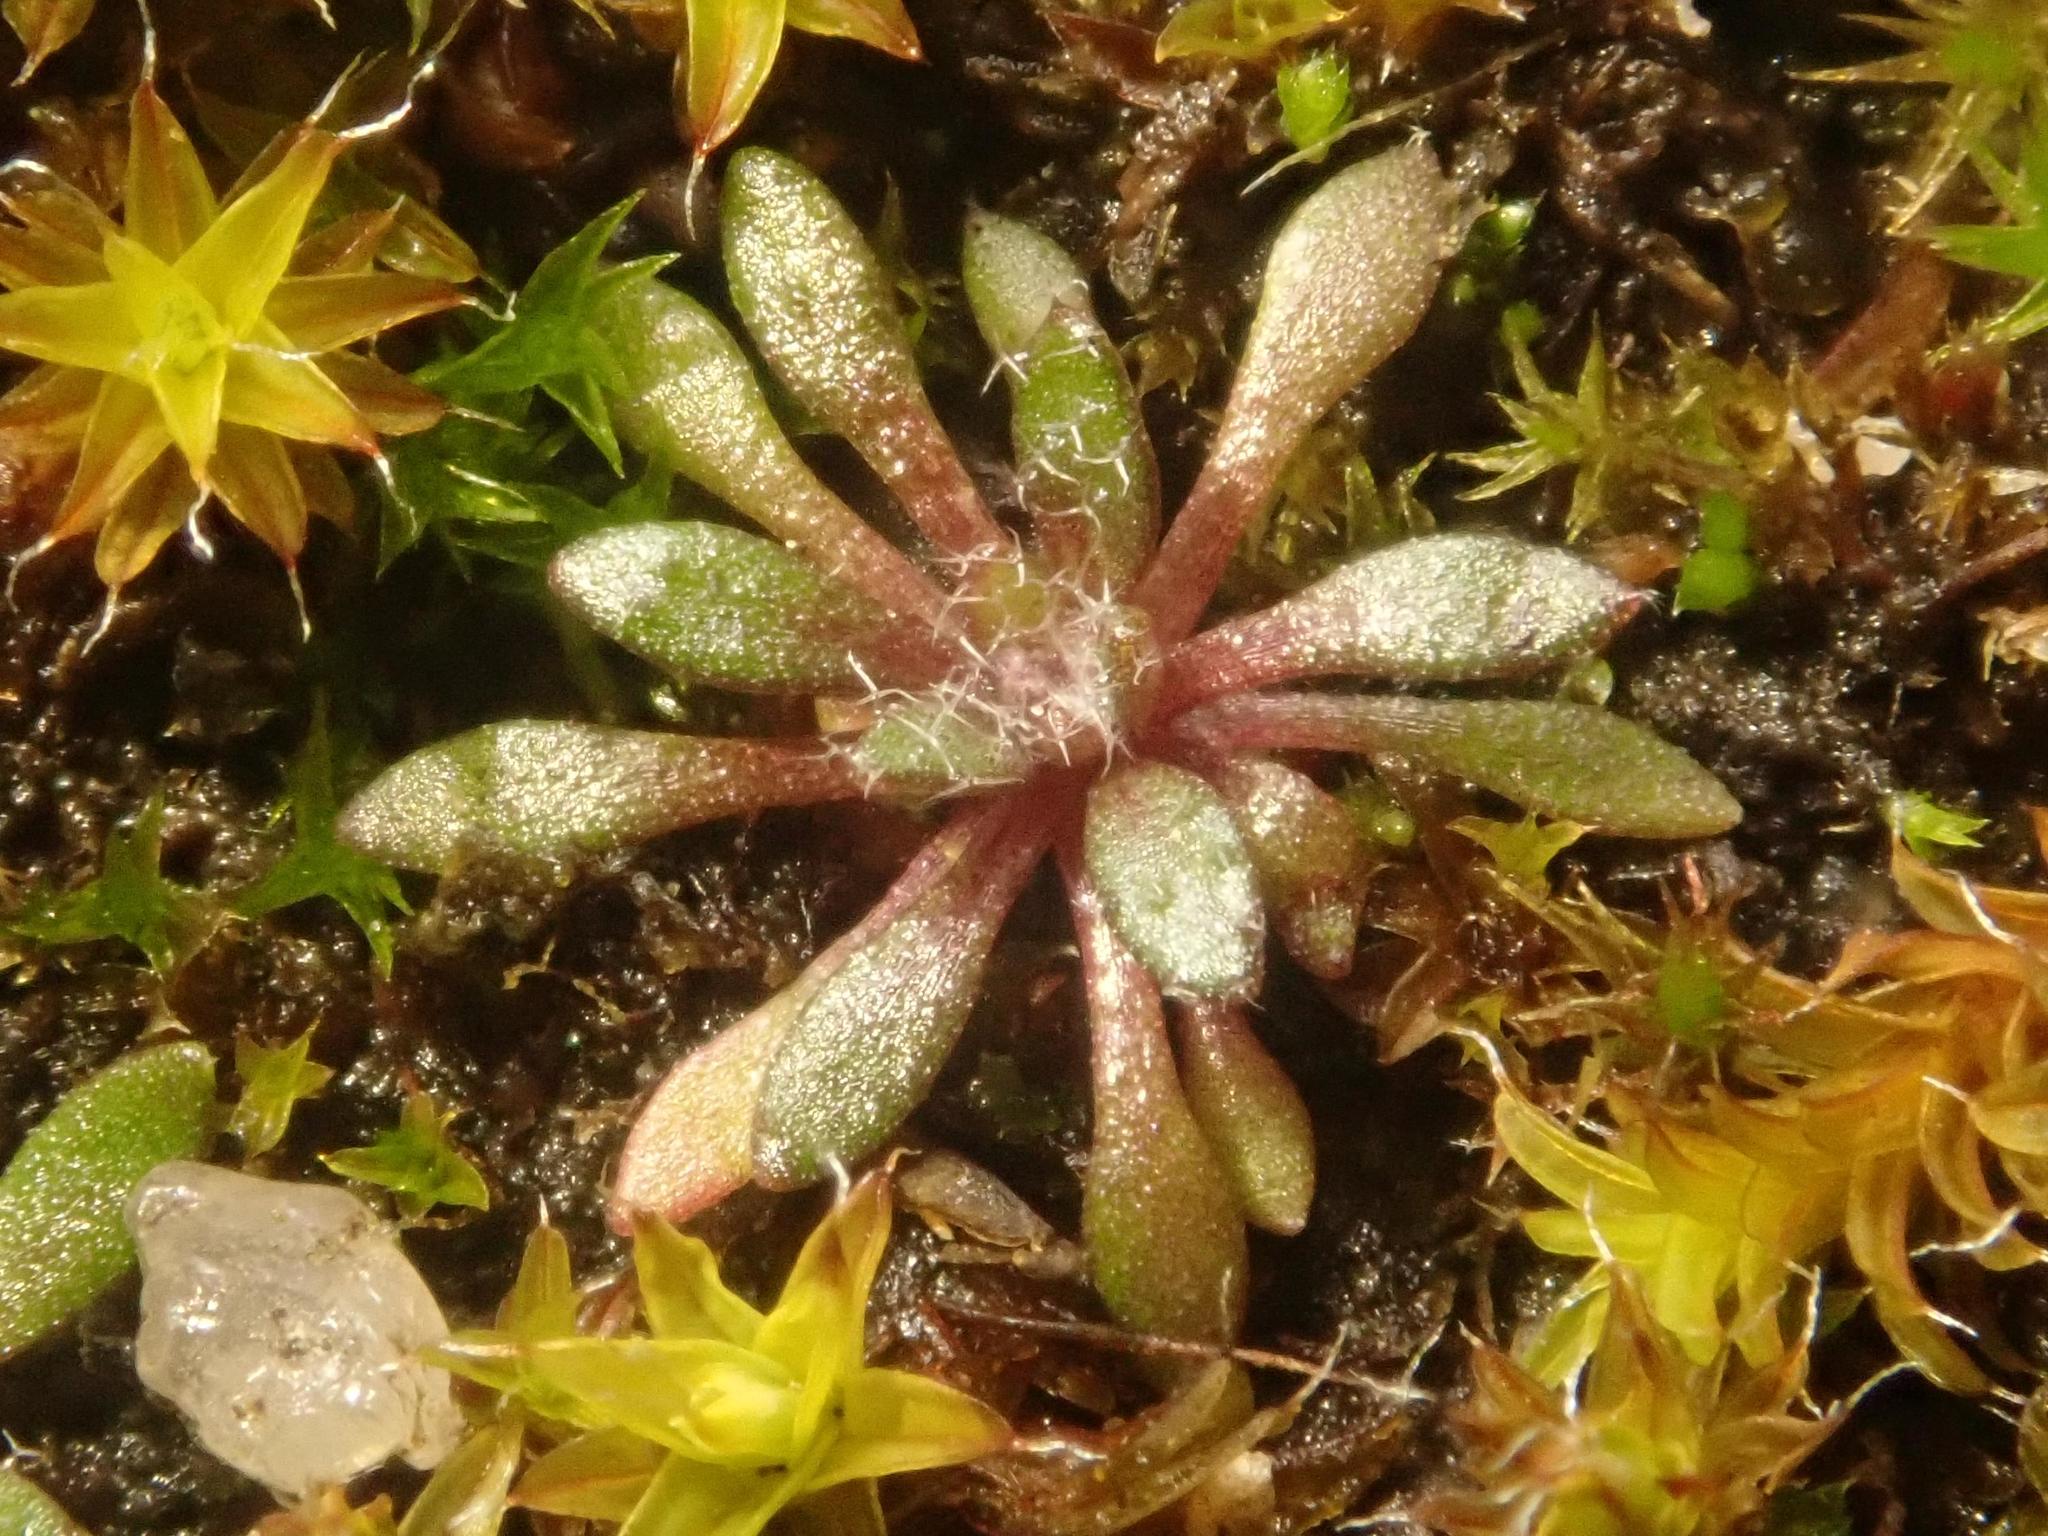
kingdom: Plantae
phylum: Tracheophyta
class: Magnoliopsida
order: Brassicales
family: Brassicaceae
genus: Draba
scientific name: Draba verna
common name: Spring draba
